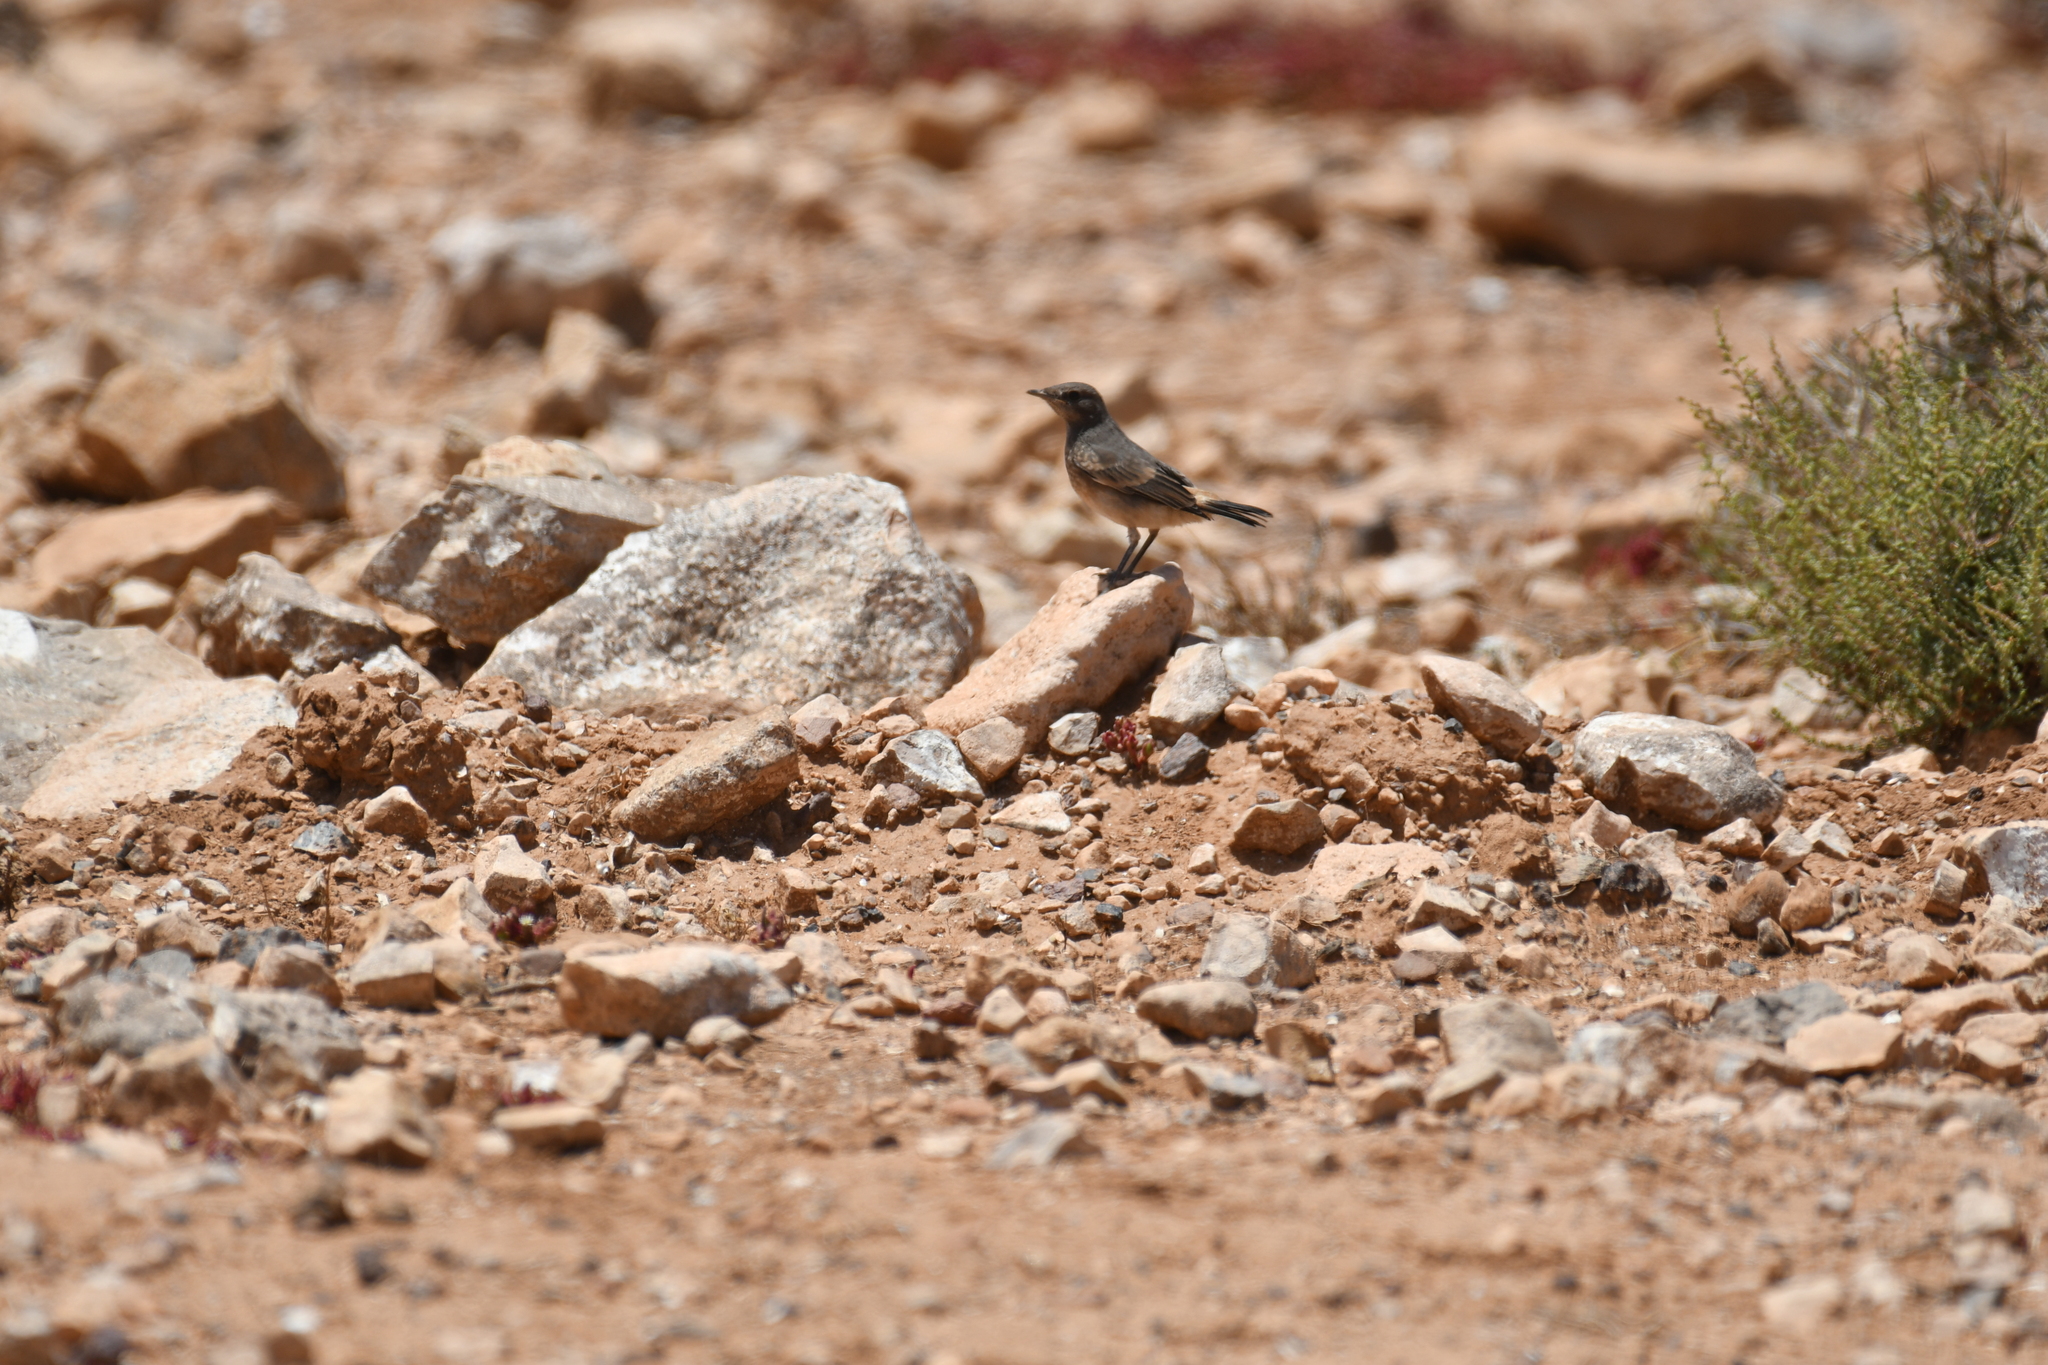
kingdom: Animalia
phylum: Chordata
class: Aves
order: Passeriformes
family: Muscicapidae
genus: Oenanthe
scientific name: Oenanthe moesta
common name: Red-rumped wheatear
